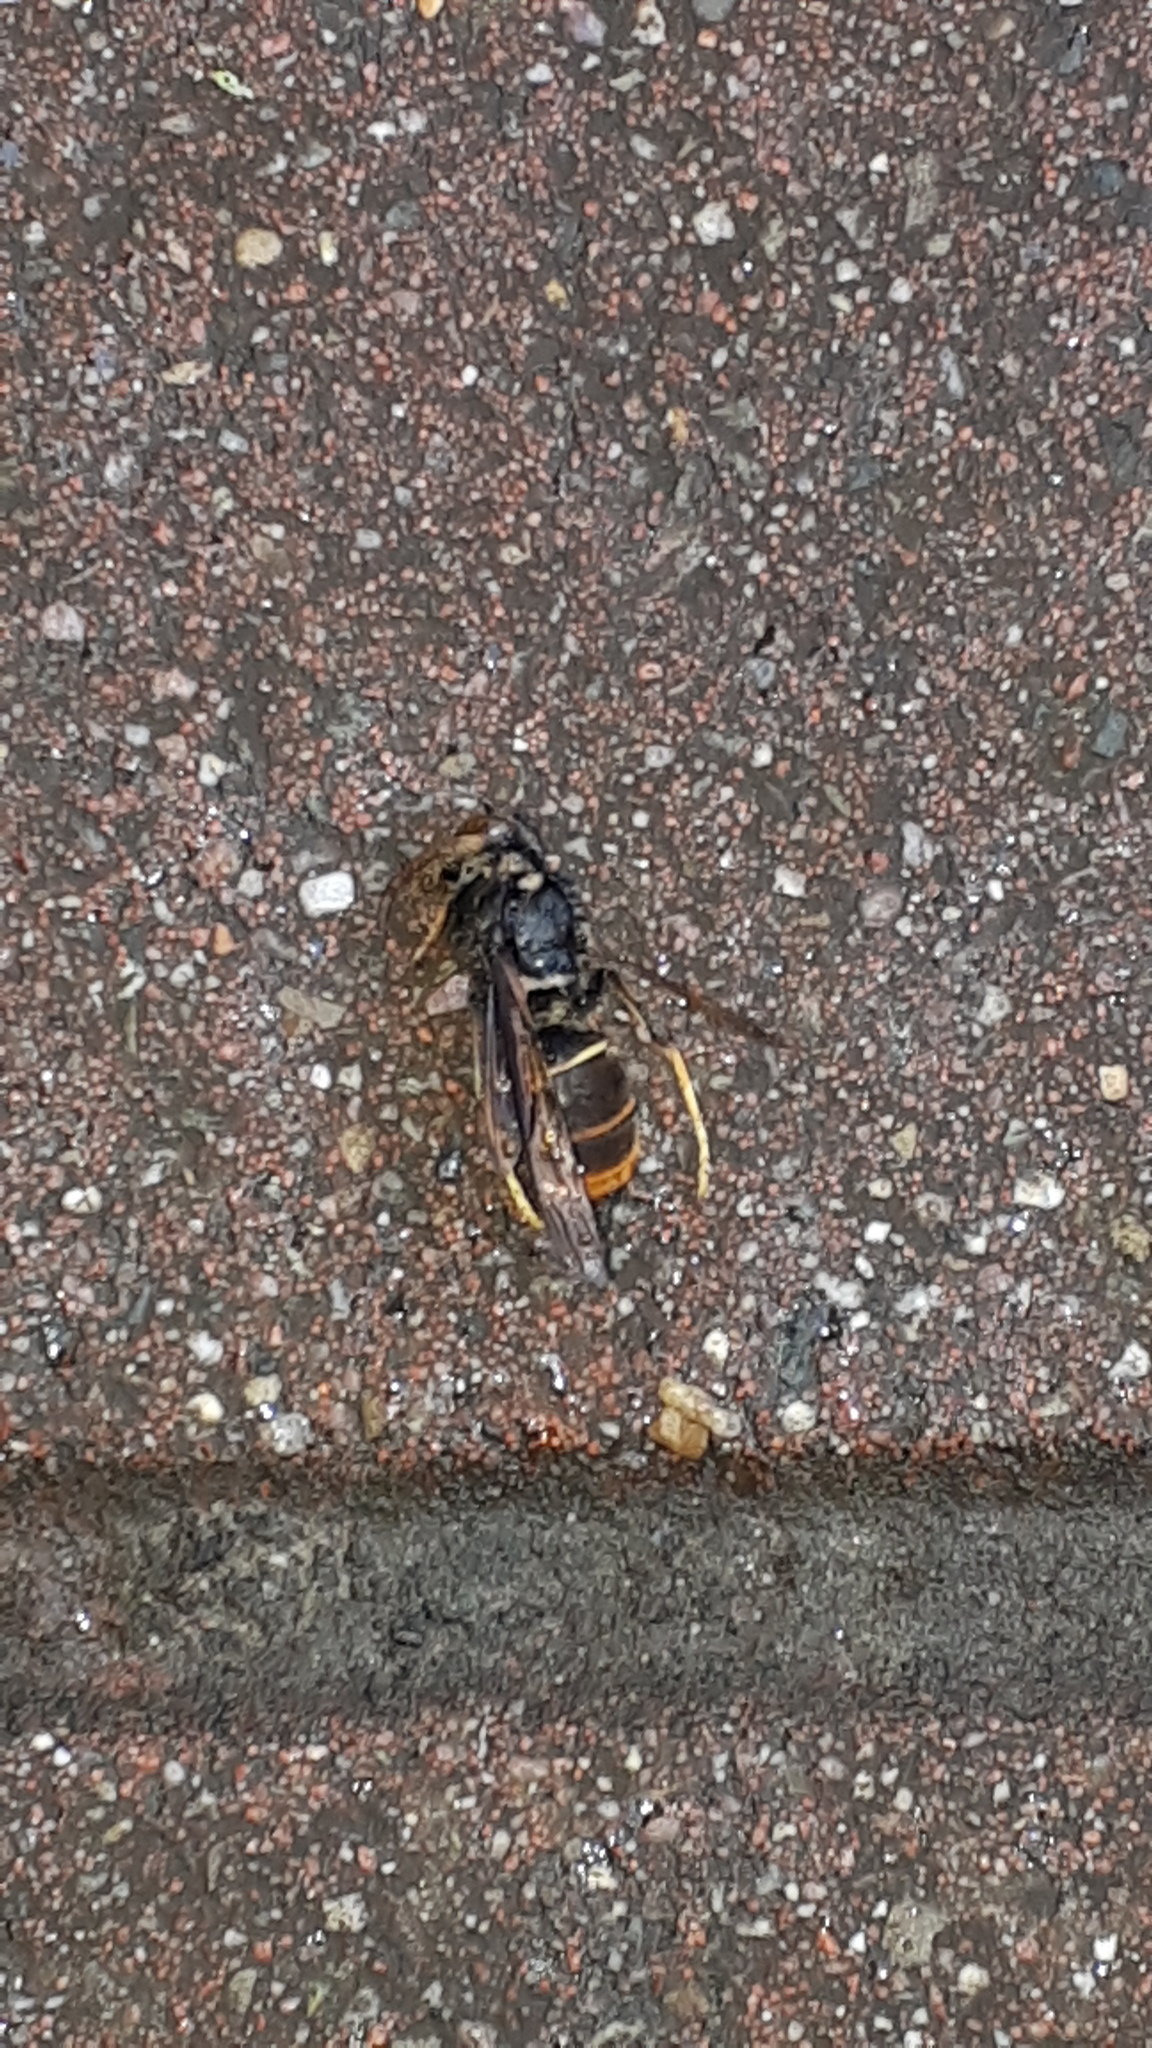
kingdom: Animalia
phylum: Arthropoda
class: Insecta
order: Hymenoptera
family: Vespidae
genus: Vespa
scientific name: Vespa velutina
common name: Asian hornet
